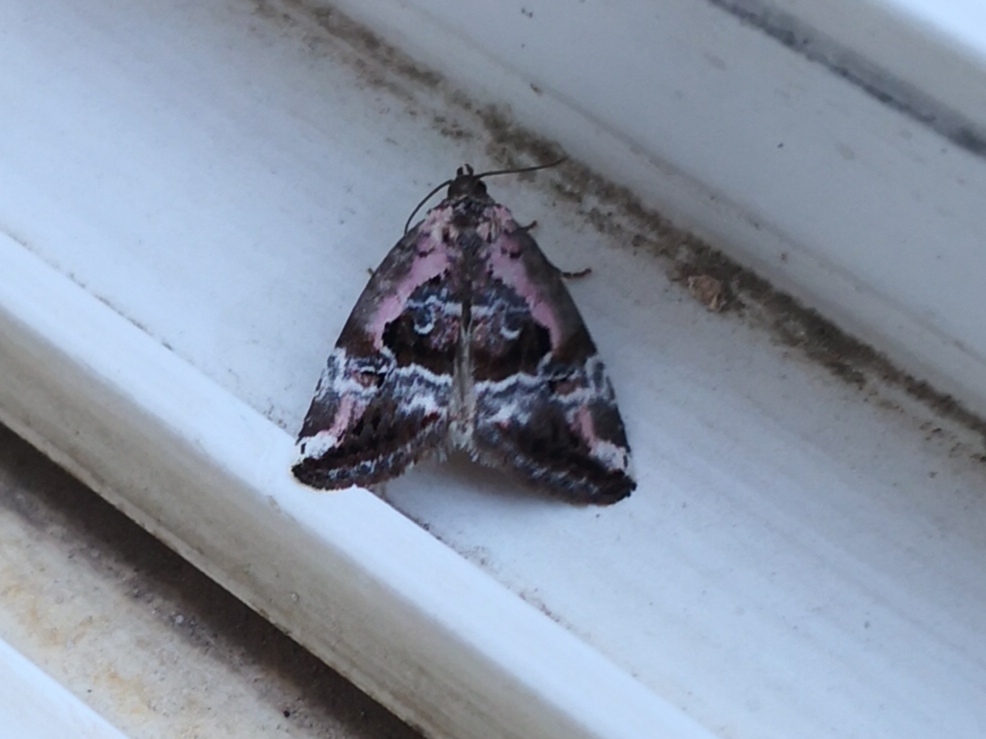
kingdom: Animalia
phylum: Arthropoda
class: Insecta
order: Lepidoptera
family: Noctuidae
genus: Elaphria
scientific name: Elaphria venustula
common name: Rosy marbled
